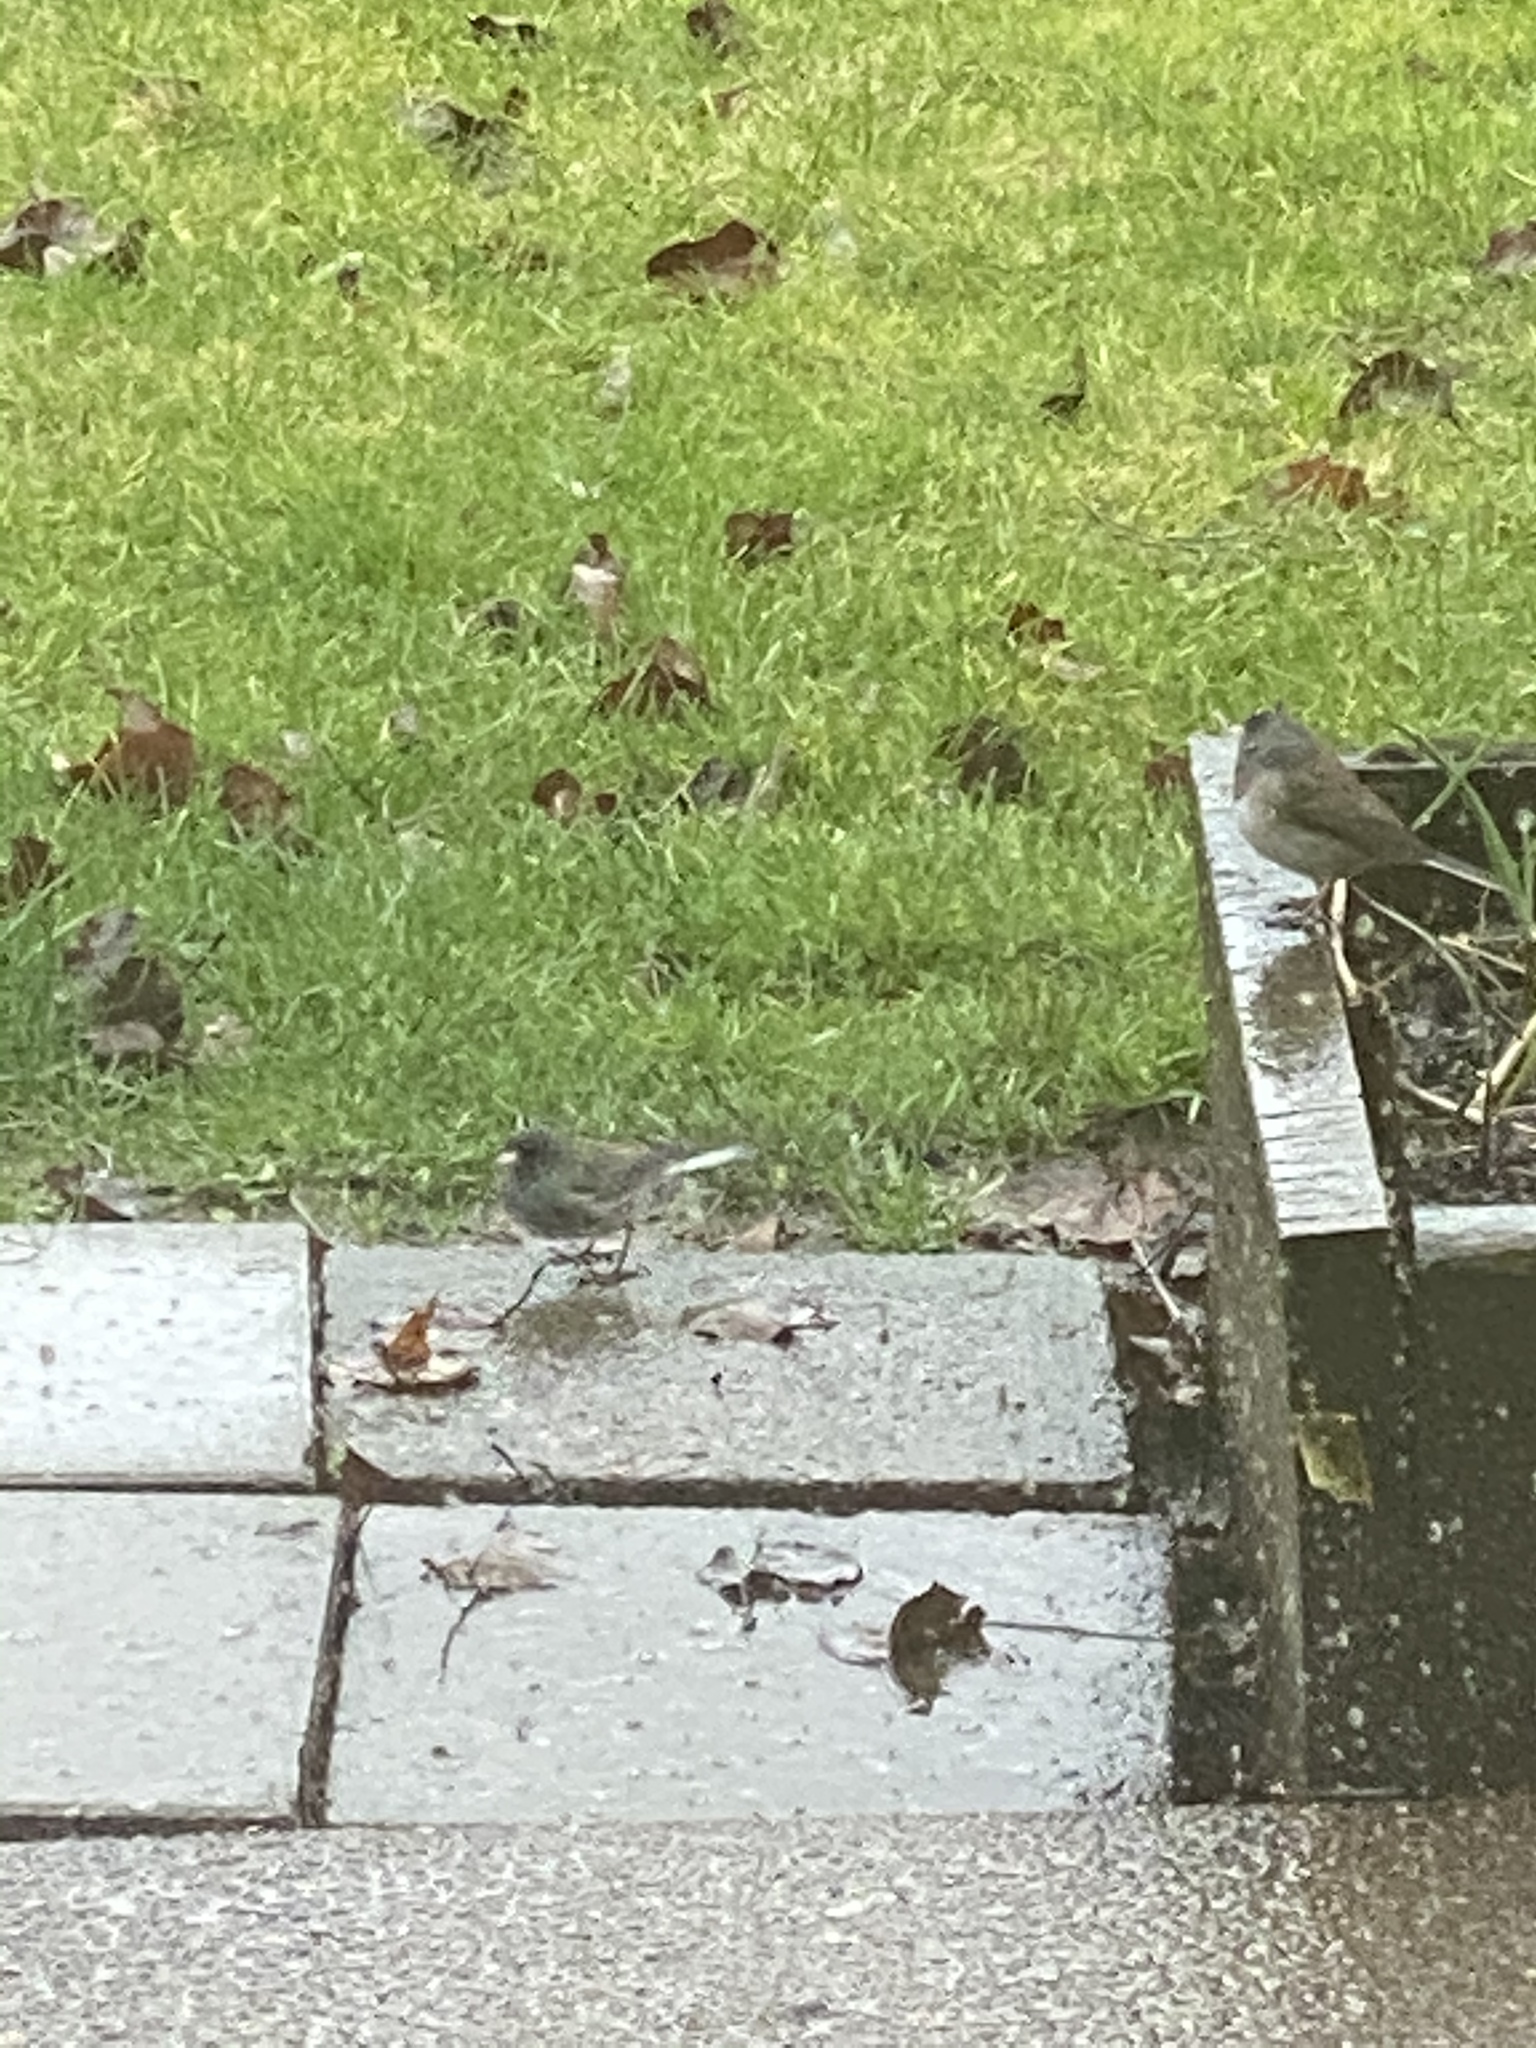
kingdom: Animalia
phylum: Chordata
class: Aves
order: Passeriformes
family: Passerellidae
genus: Junco
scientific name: Junco hyemalis
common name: Dark-eyed junco
